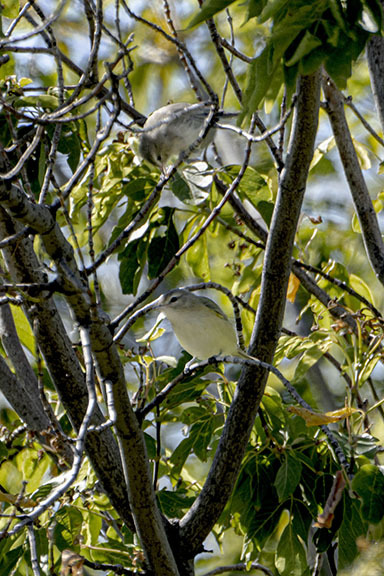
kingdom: Animalia
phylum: Chordata
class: Aves
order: Passeriformes
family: Vireonidae
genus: Vireo
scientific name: Vireo olivaceus
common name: Red-eyed vireo
